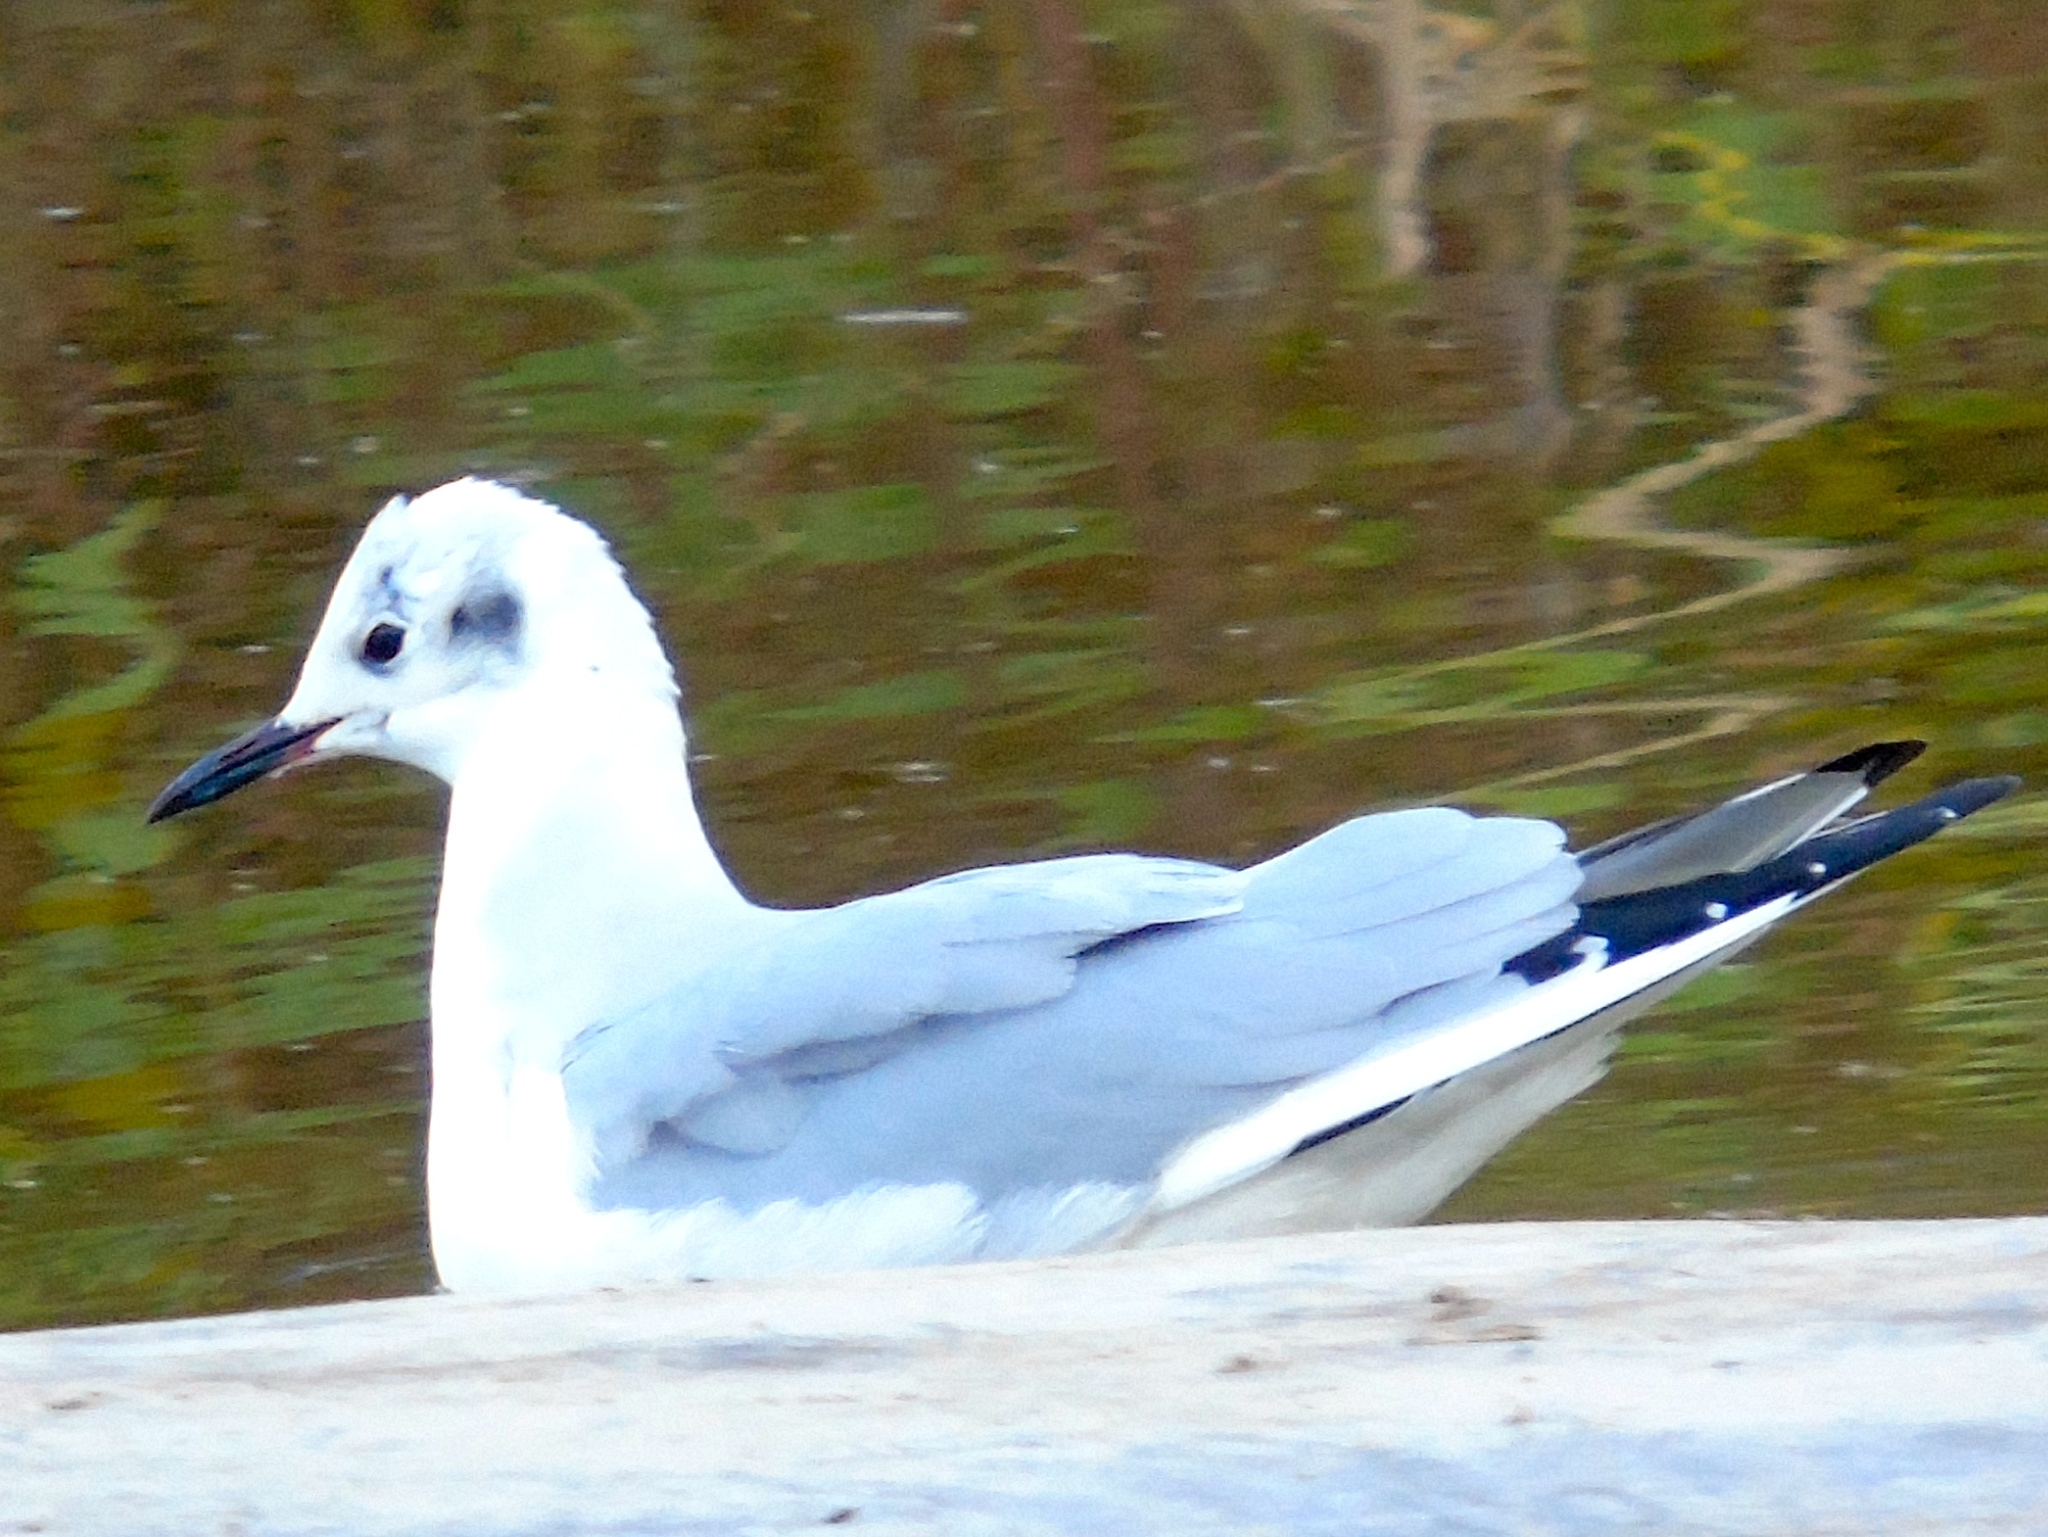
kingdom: Animalia
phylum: Chordata
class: Aves
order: Charadriiformes
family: Laridae
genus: Chroicocephalus
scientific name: Chroicocephalus philadelphia
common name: Bonaparte's gull
